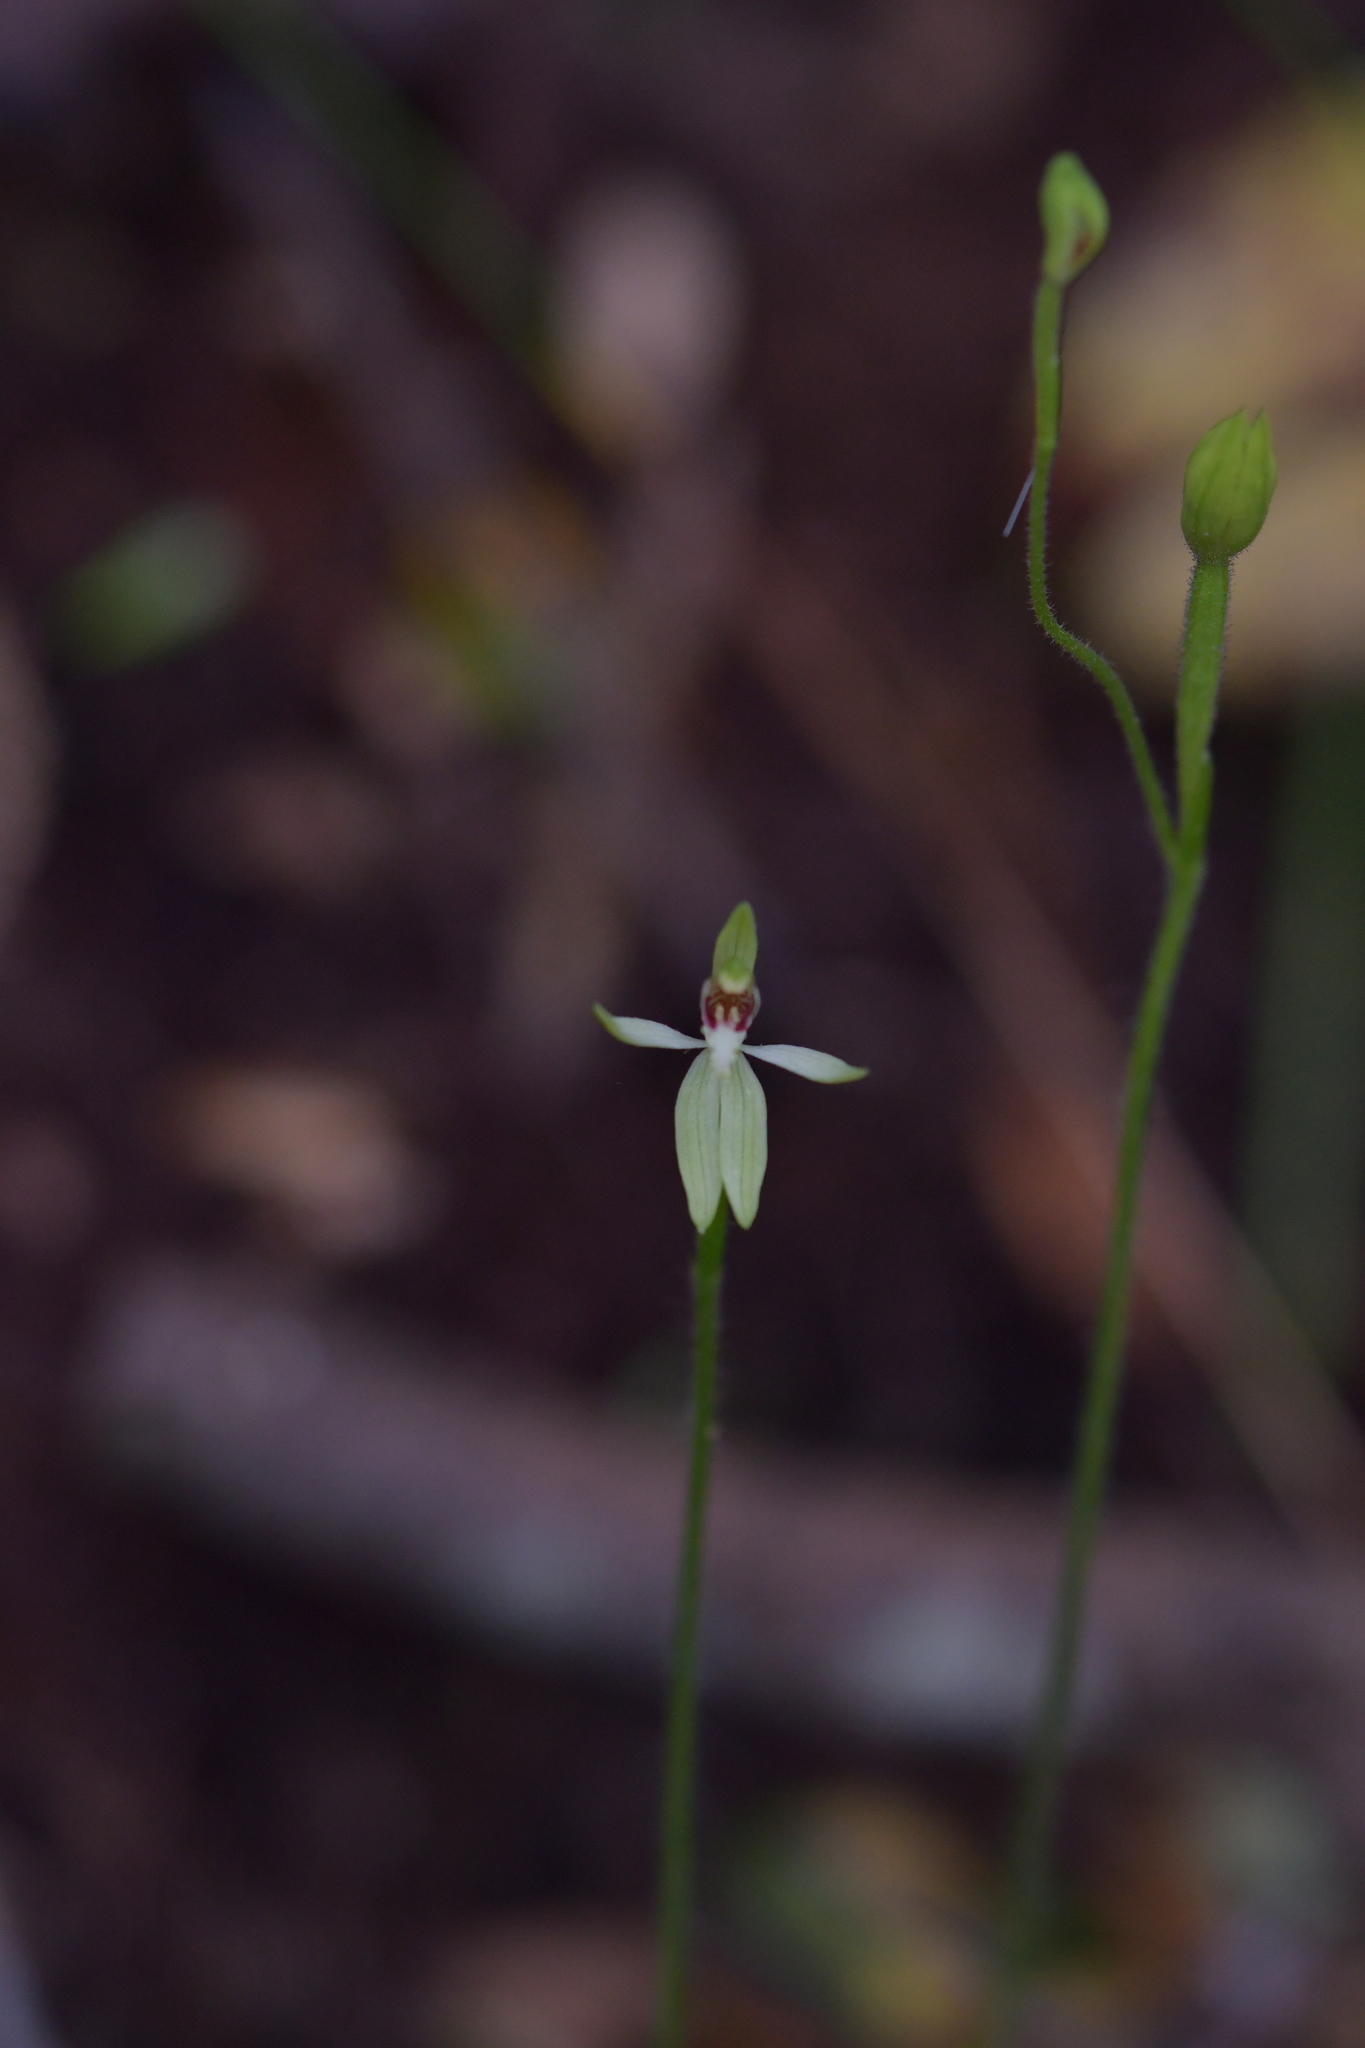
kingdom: Plantae
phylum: Tracheophyta
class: Liliopsida
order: Asparagales
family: Orchidaceae
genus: Caladenia
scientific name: Caladenia chlorostyla
